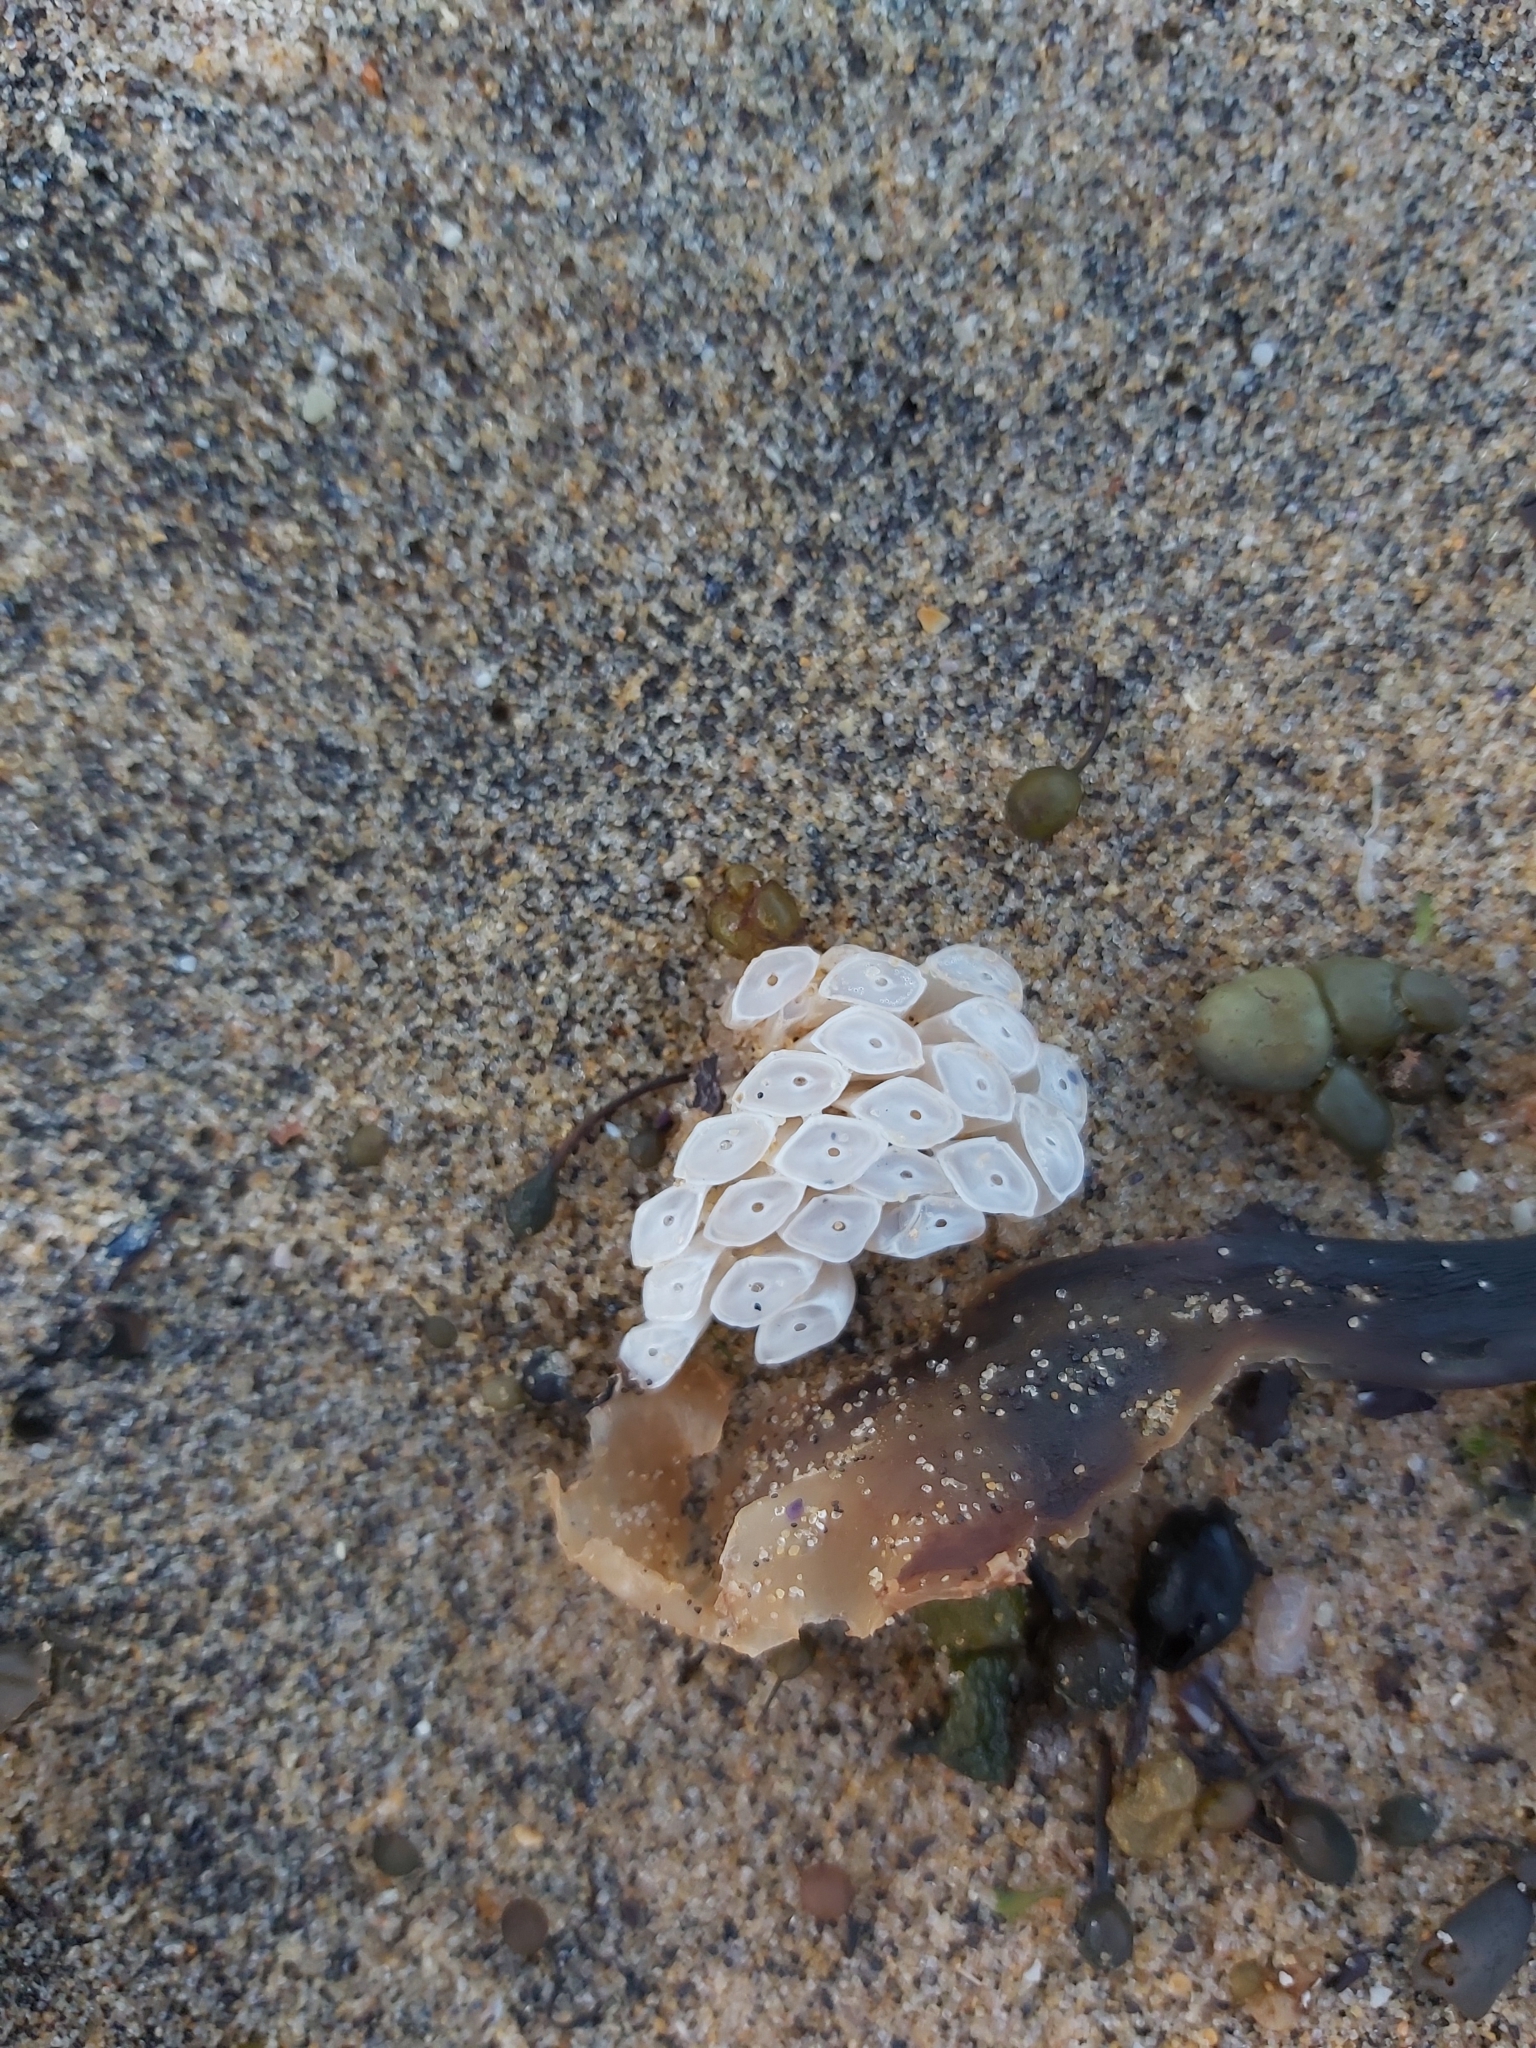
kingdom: Animalia
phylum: Mollusca
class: Gastropoda
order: Neogastropoda
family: Muricidae
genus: Dicathais
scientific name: Dicathais orbita
